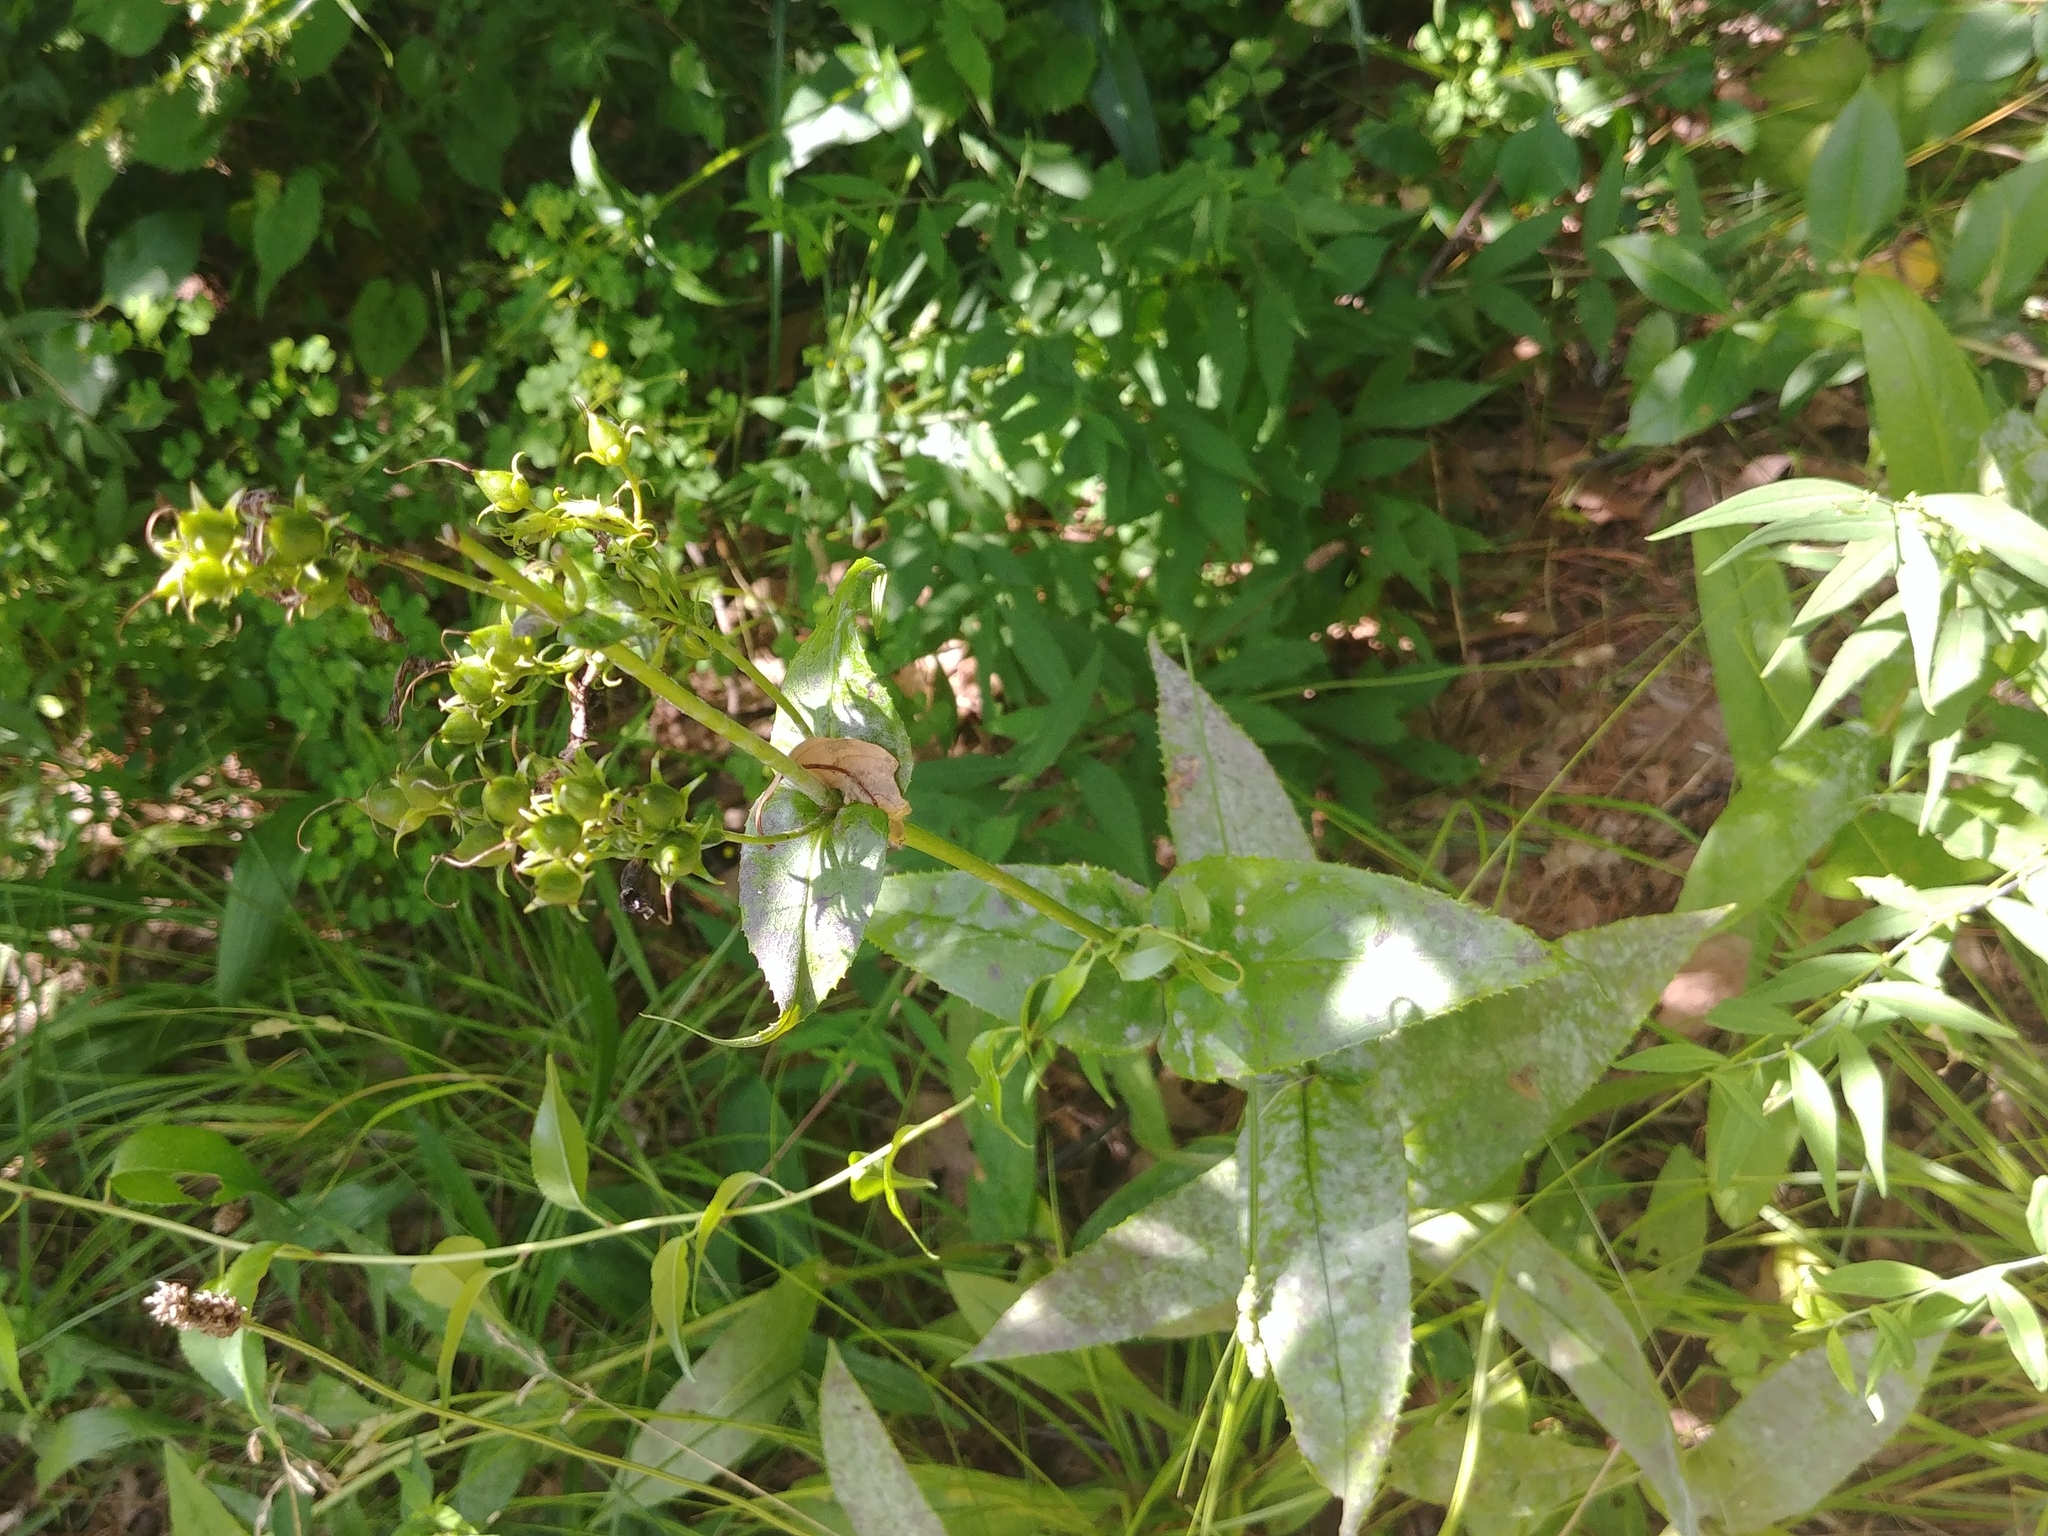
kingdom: Plantae
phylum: Tracheophyta
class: Magnoliopsida
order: Lamiales
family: Plantaginaceae
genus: Penstemon
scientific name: Penstemon digitalis
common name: Foxglove beardtongue
